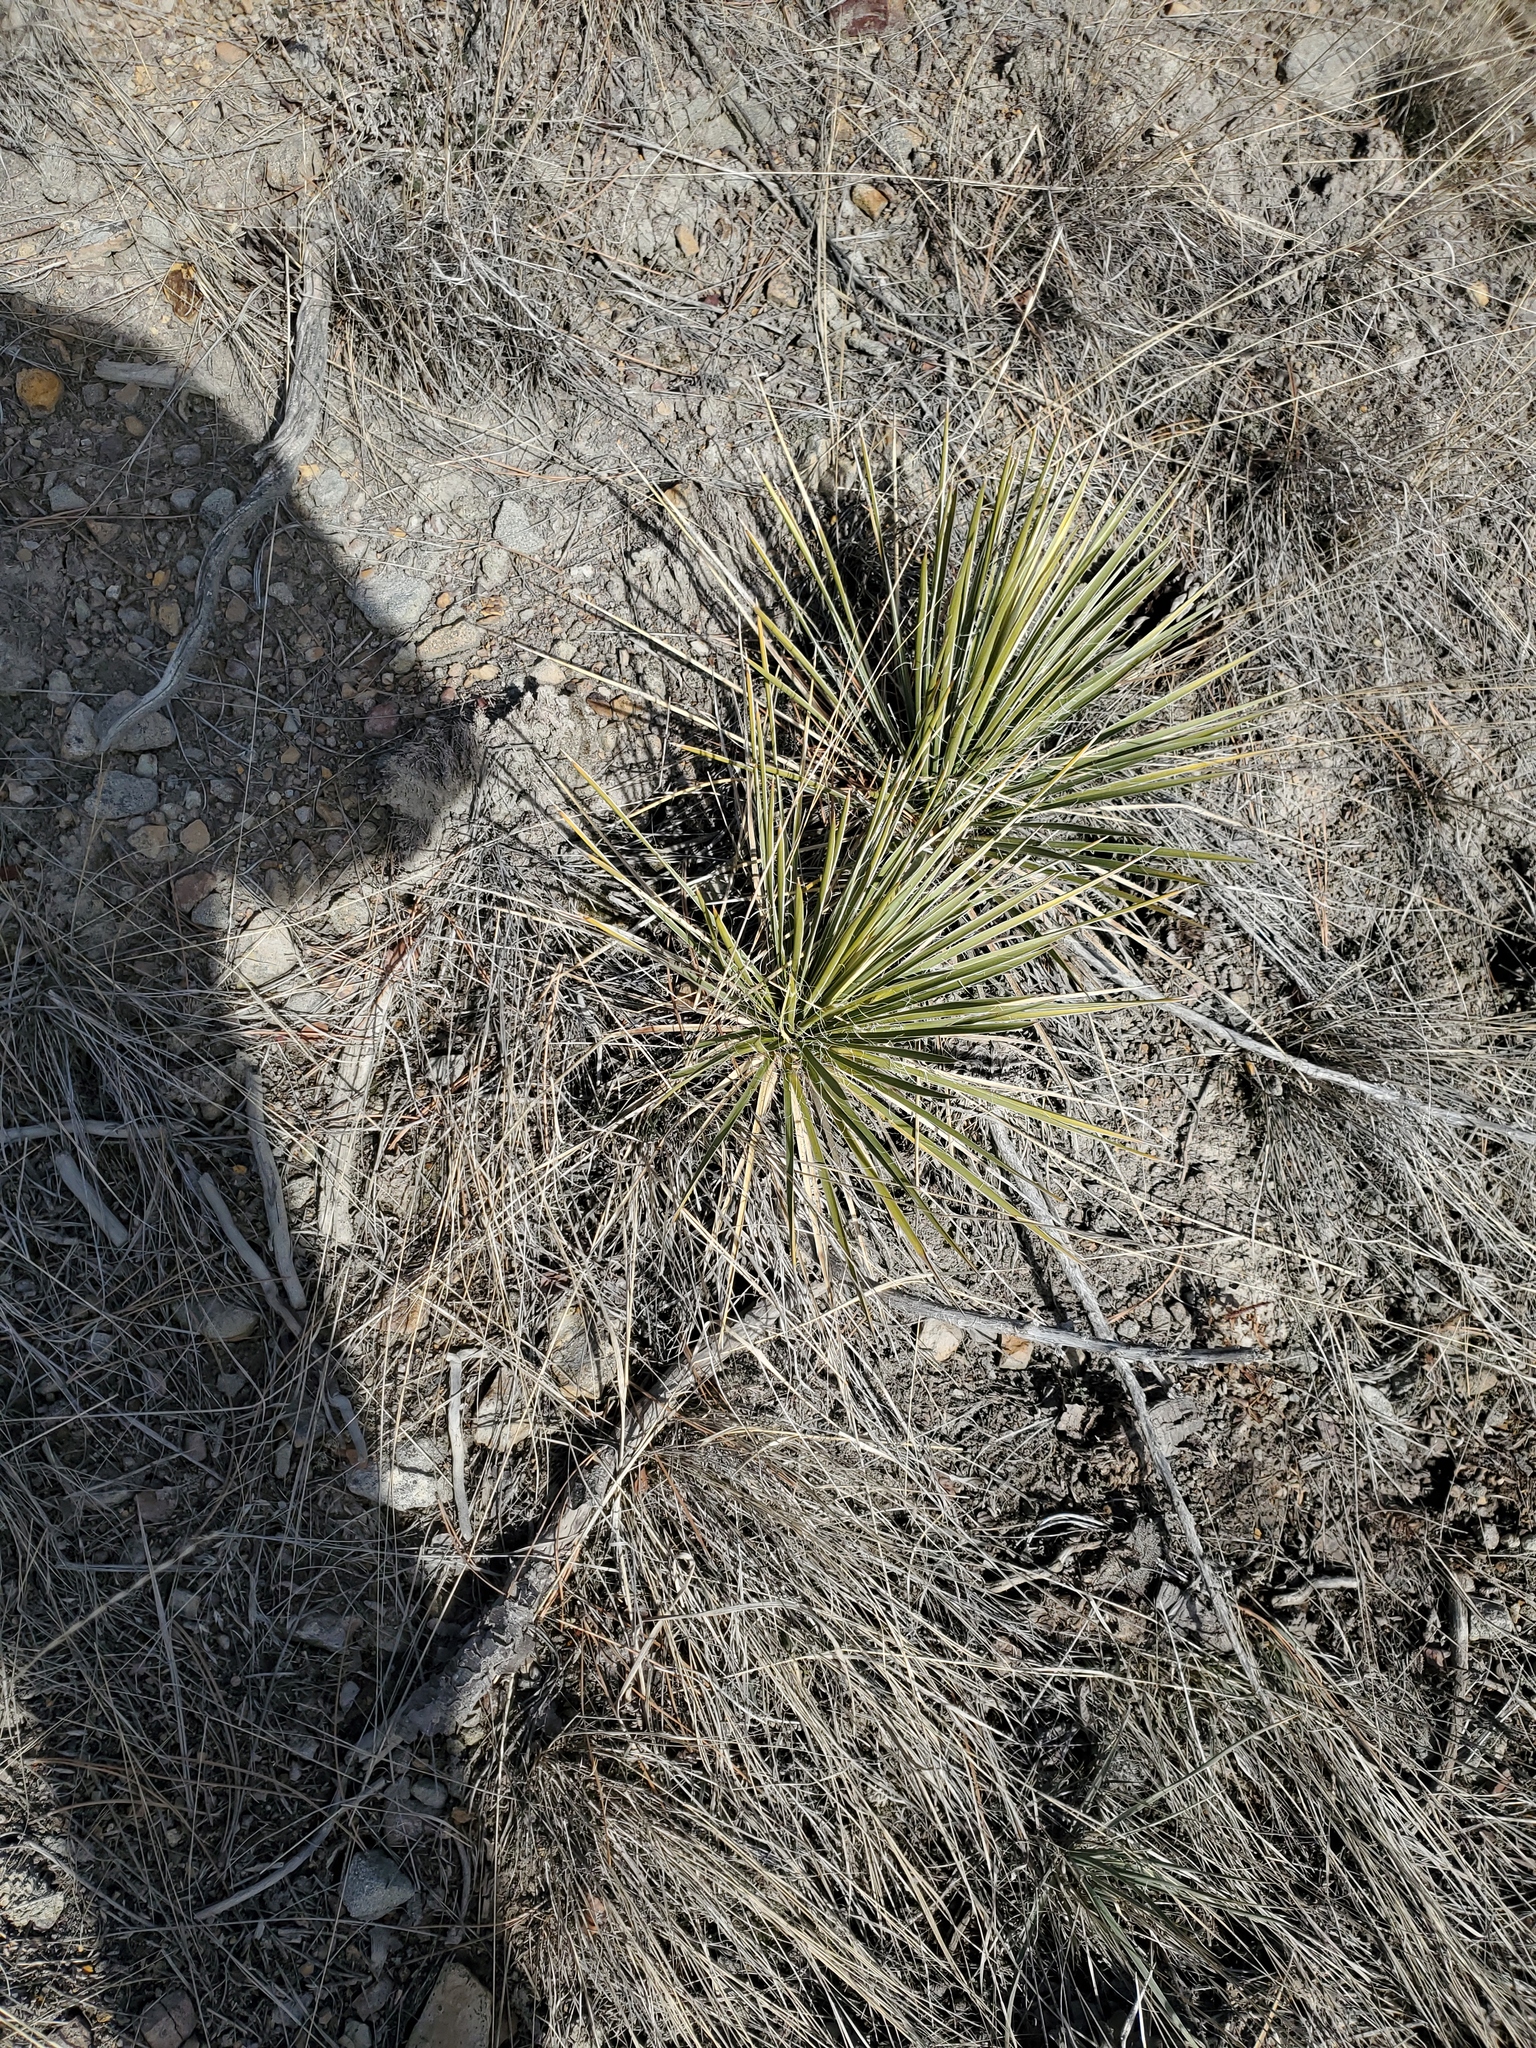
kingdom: Plantae
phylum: Tracheophyta
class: Liliopsida
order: Asparagales
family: Asparagaceae
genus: Yucca
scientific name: Yucca glauca
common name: Great plains yucca
